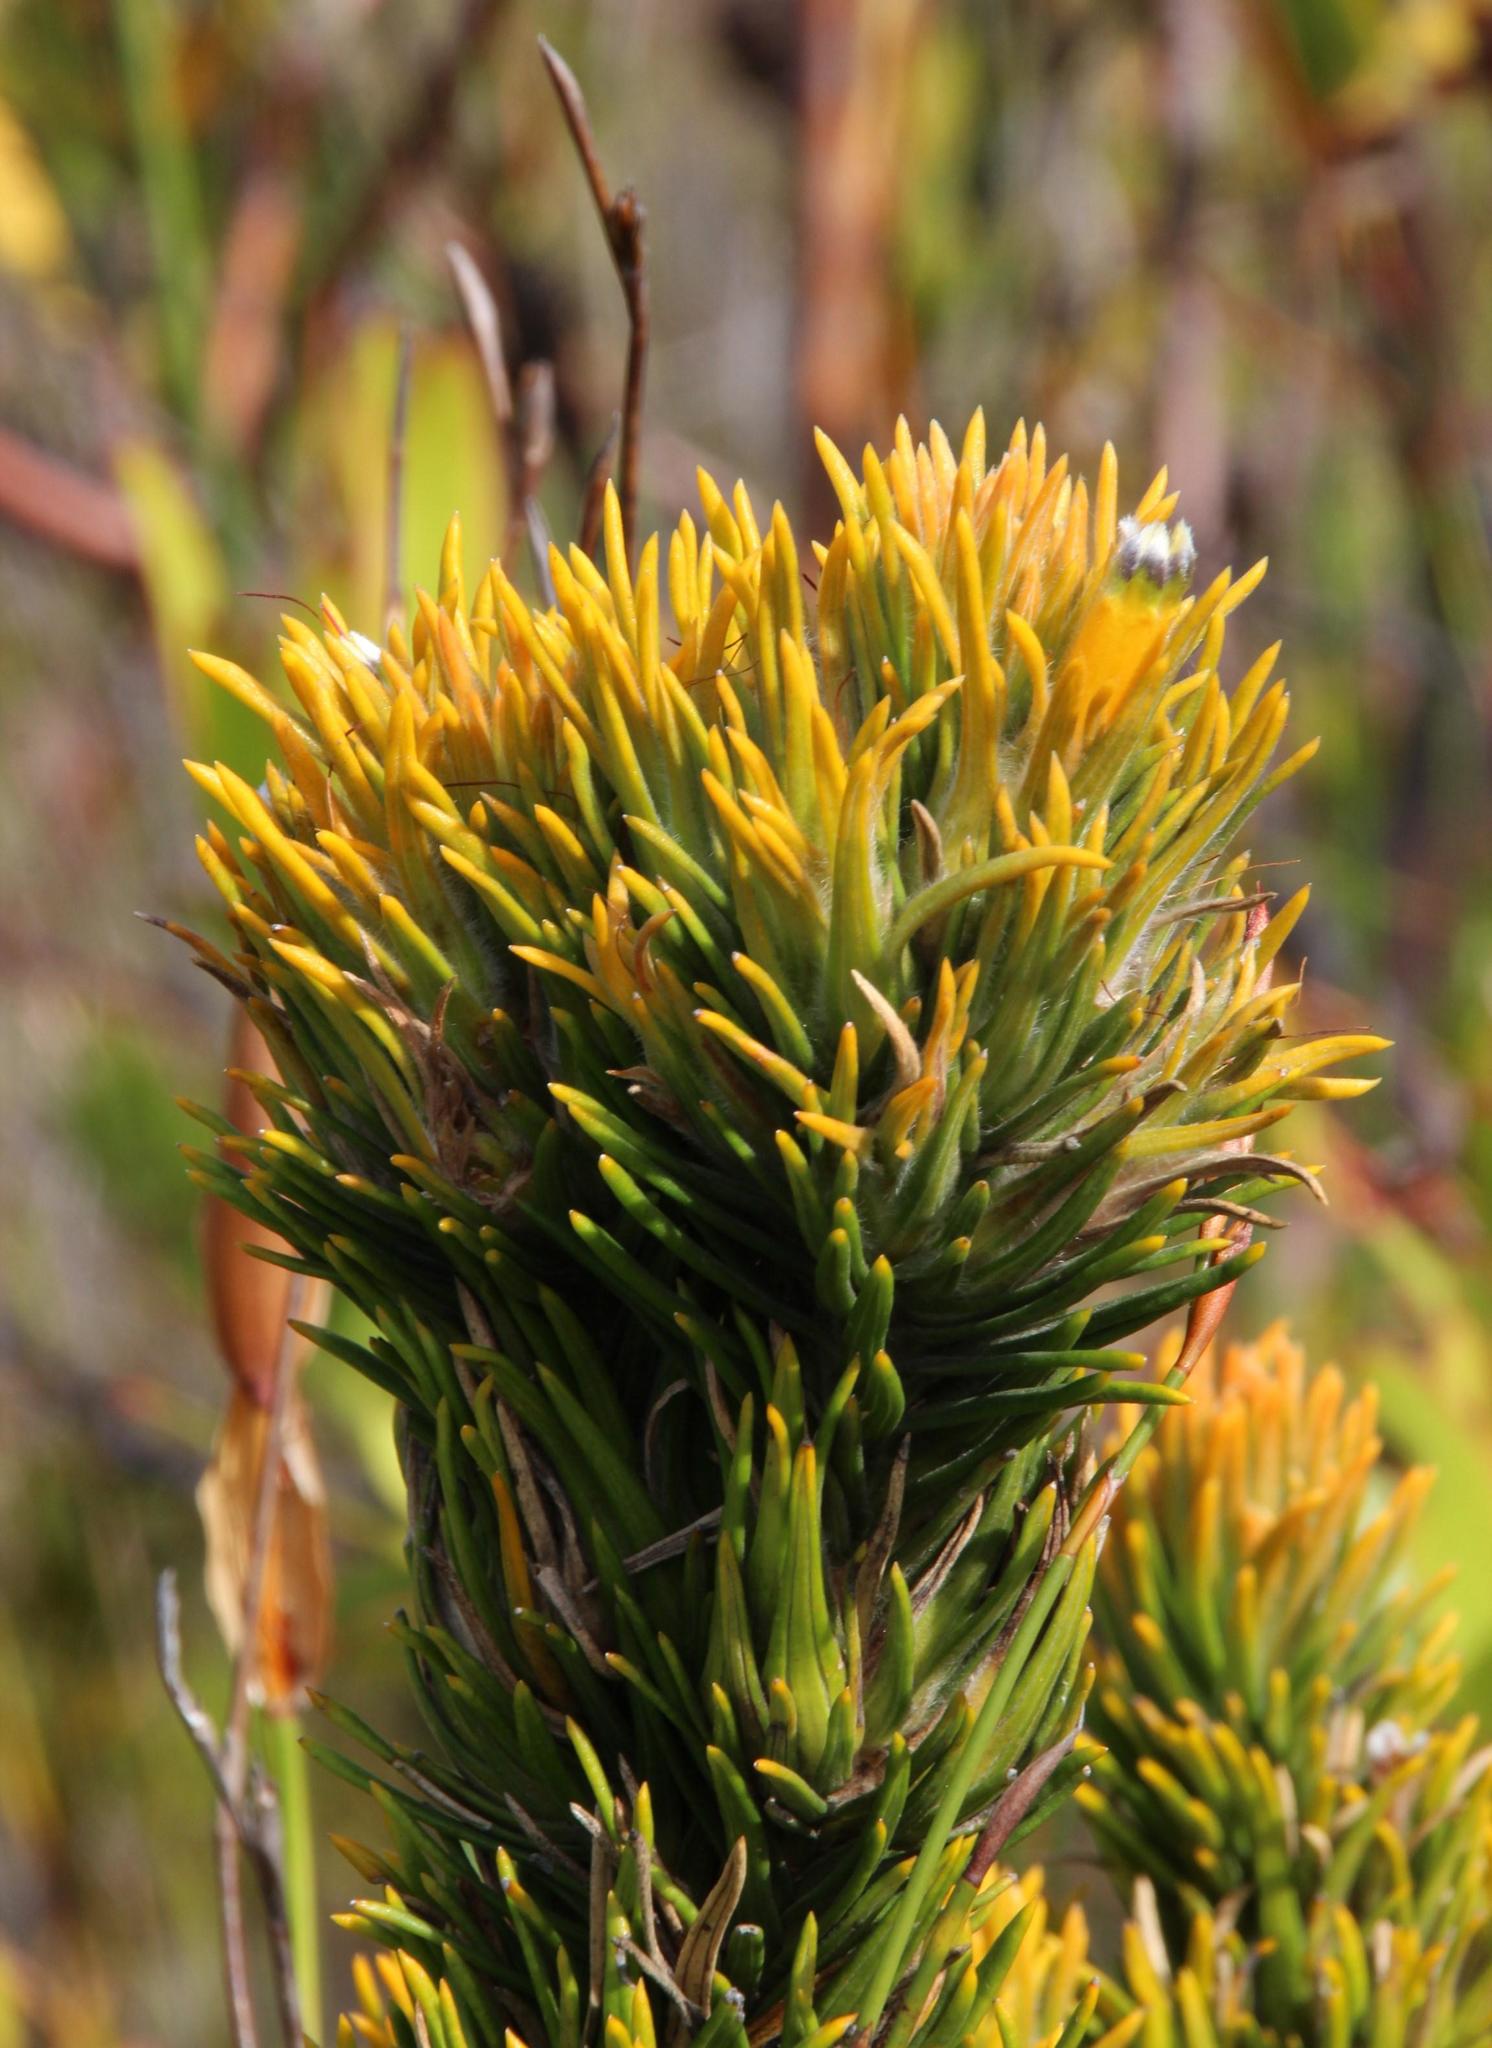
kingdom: Plantae
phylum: Tracheophyta
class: Magnoliopsida
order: Lamiales
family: Stilbaceae
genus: Retzia
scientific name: Retzia capensis
